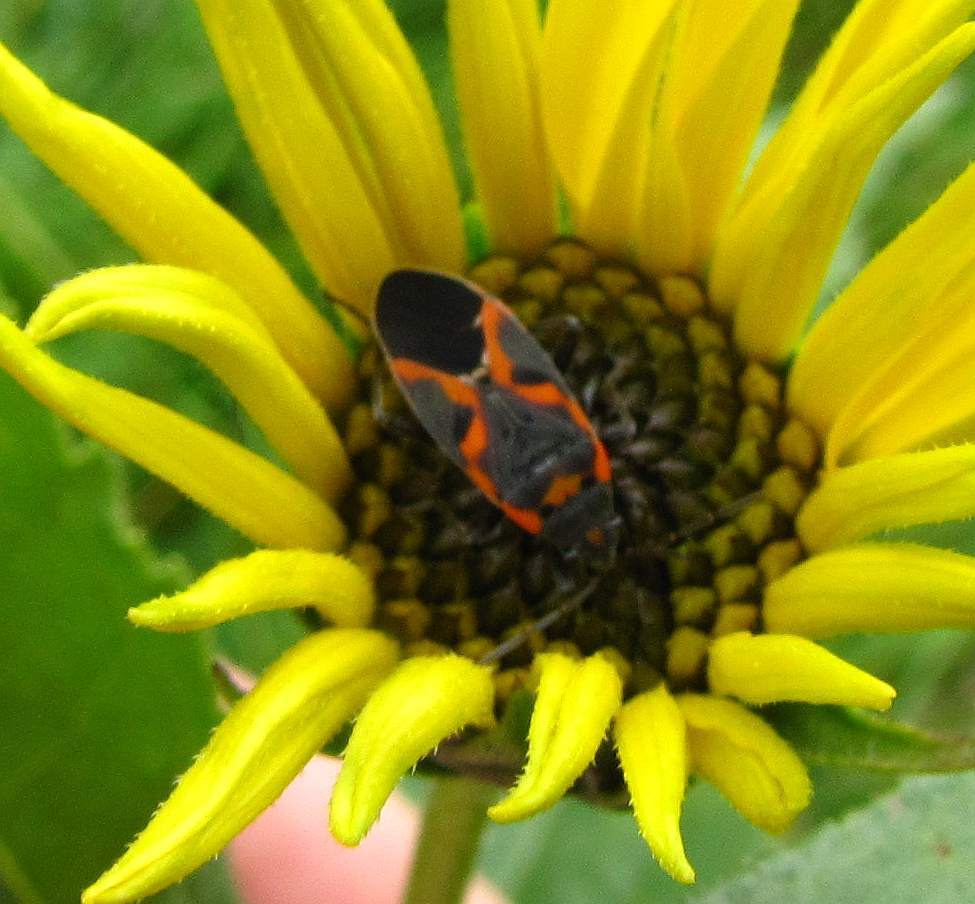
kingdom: Animalia
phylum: Arthropoda
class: Insecta
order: Hemiptera
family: Lygaeidae
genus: Lygaeus
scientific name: Lygaeus kalmii
